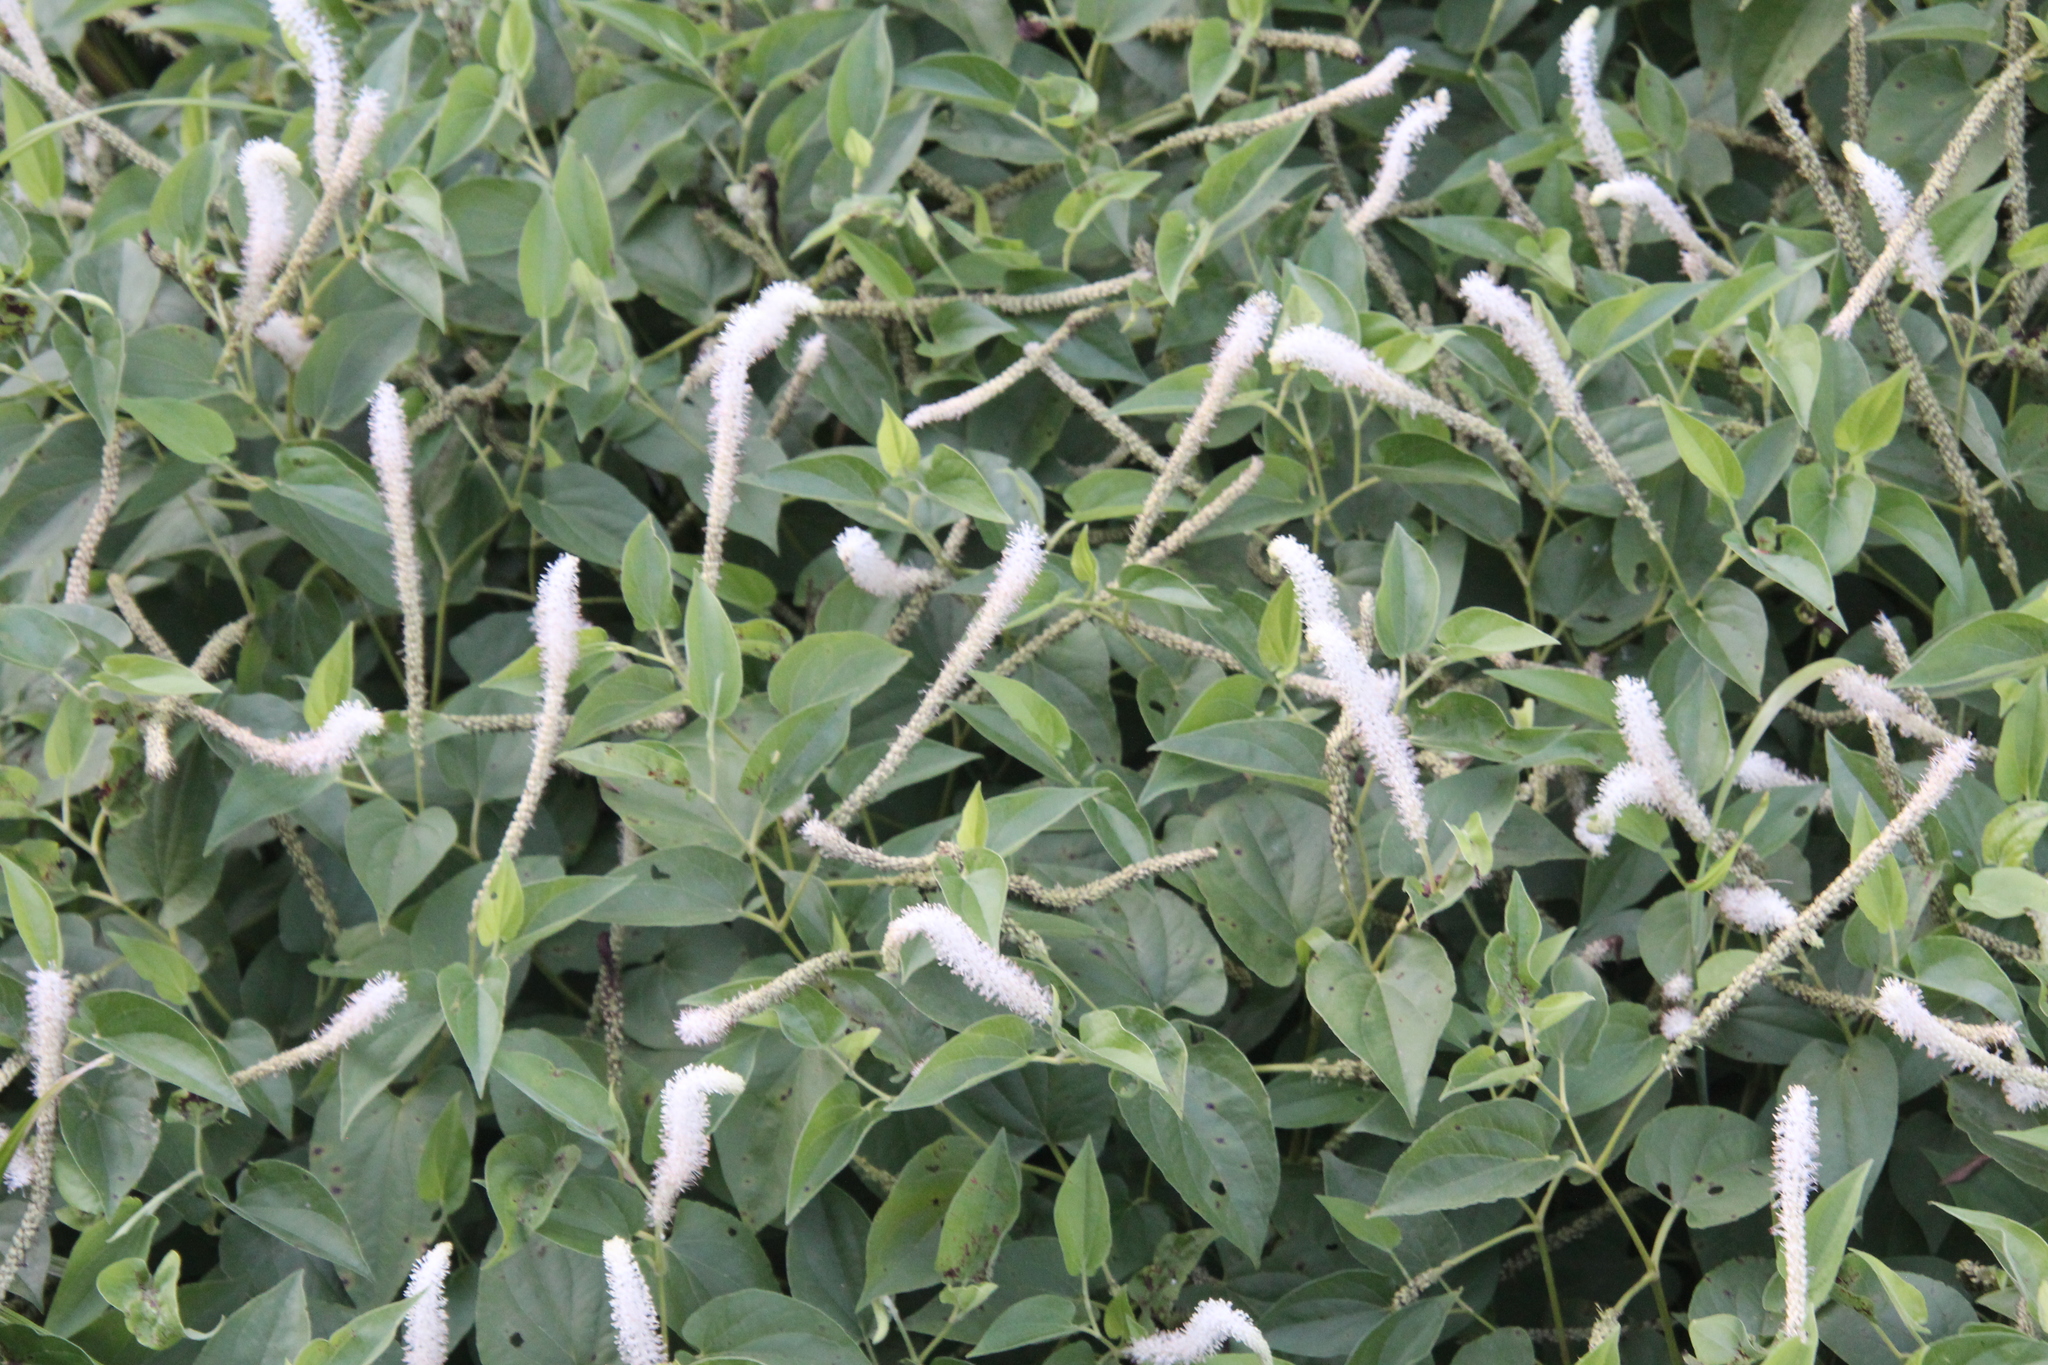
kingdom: Plantae
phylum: Tracheophyta
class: Magnoliopsida
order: Piperales
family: Saururaceae
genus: Saururus
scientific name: Saururus cernuus
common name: Lizard's-tail
